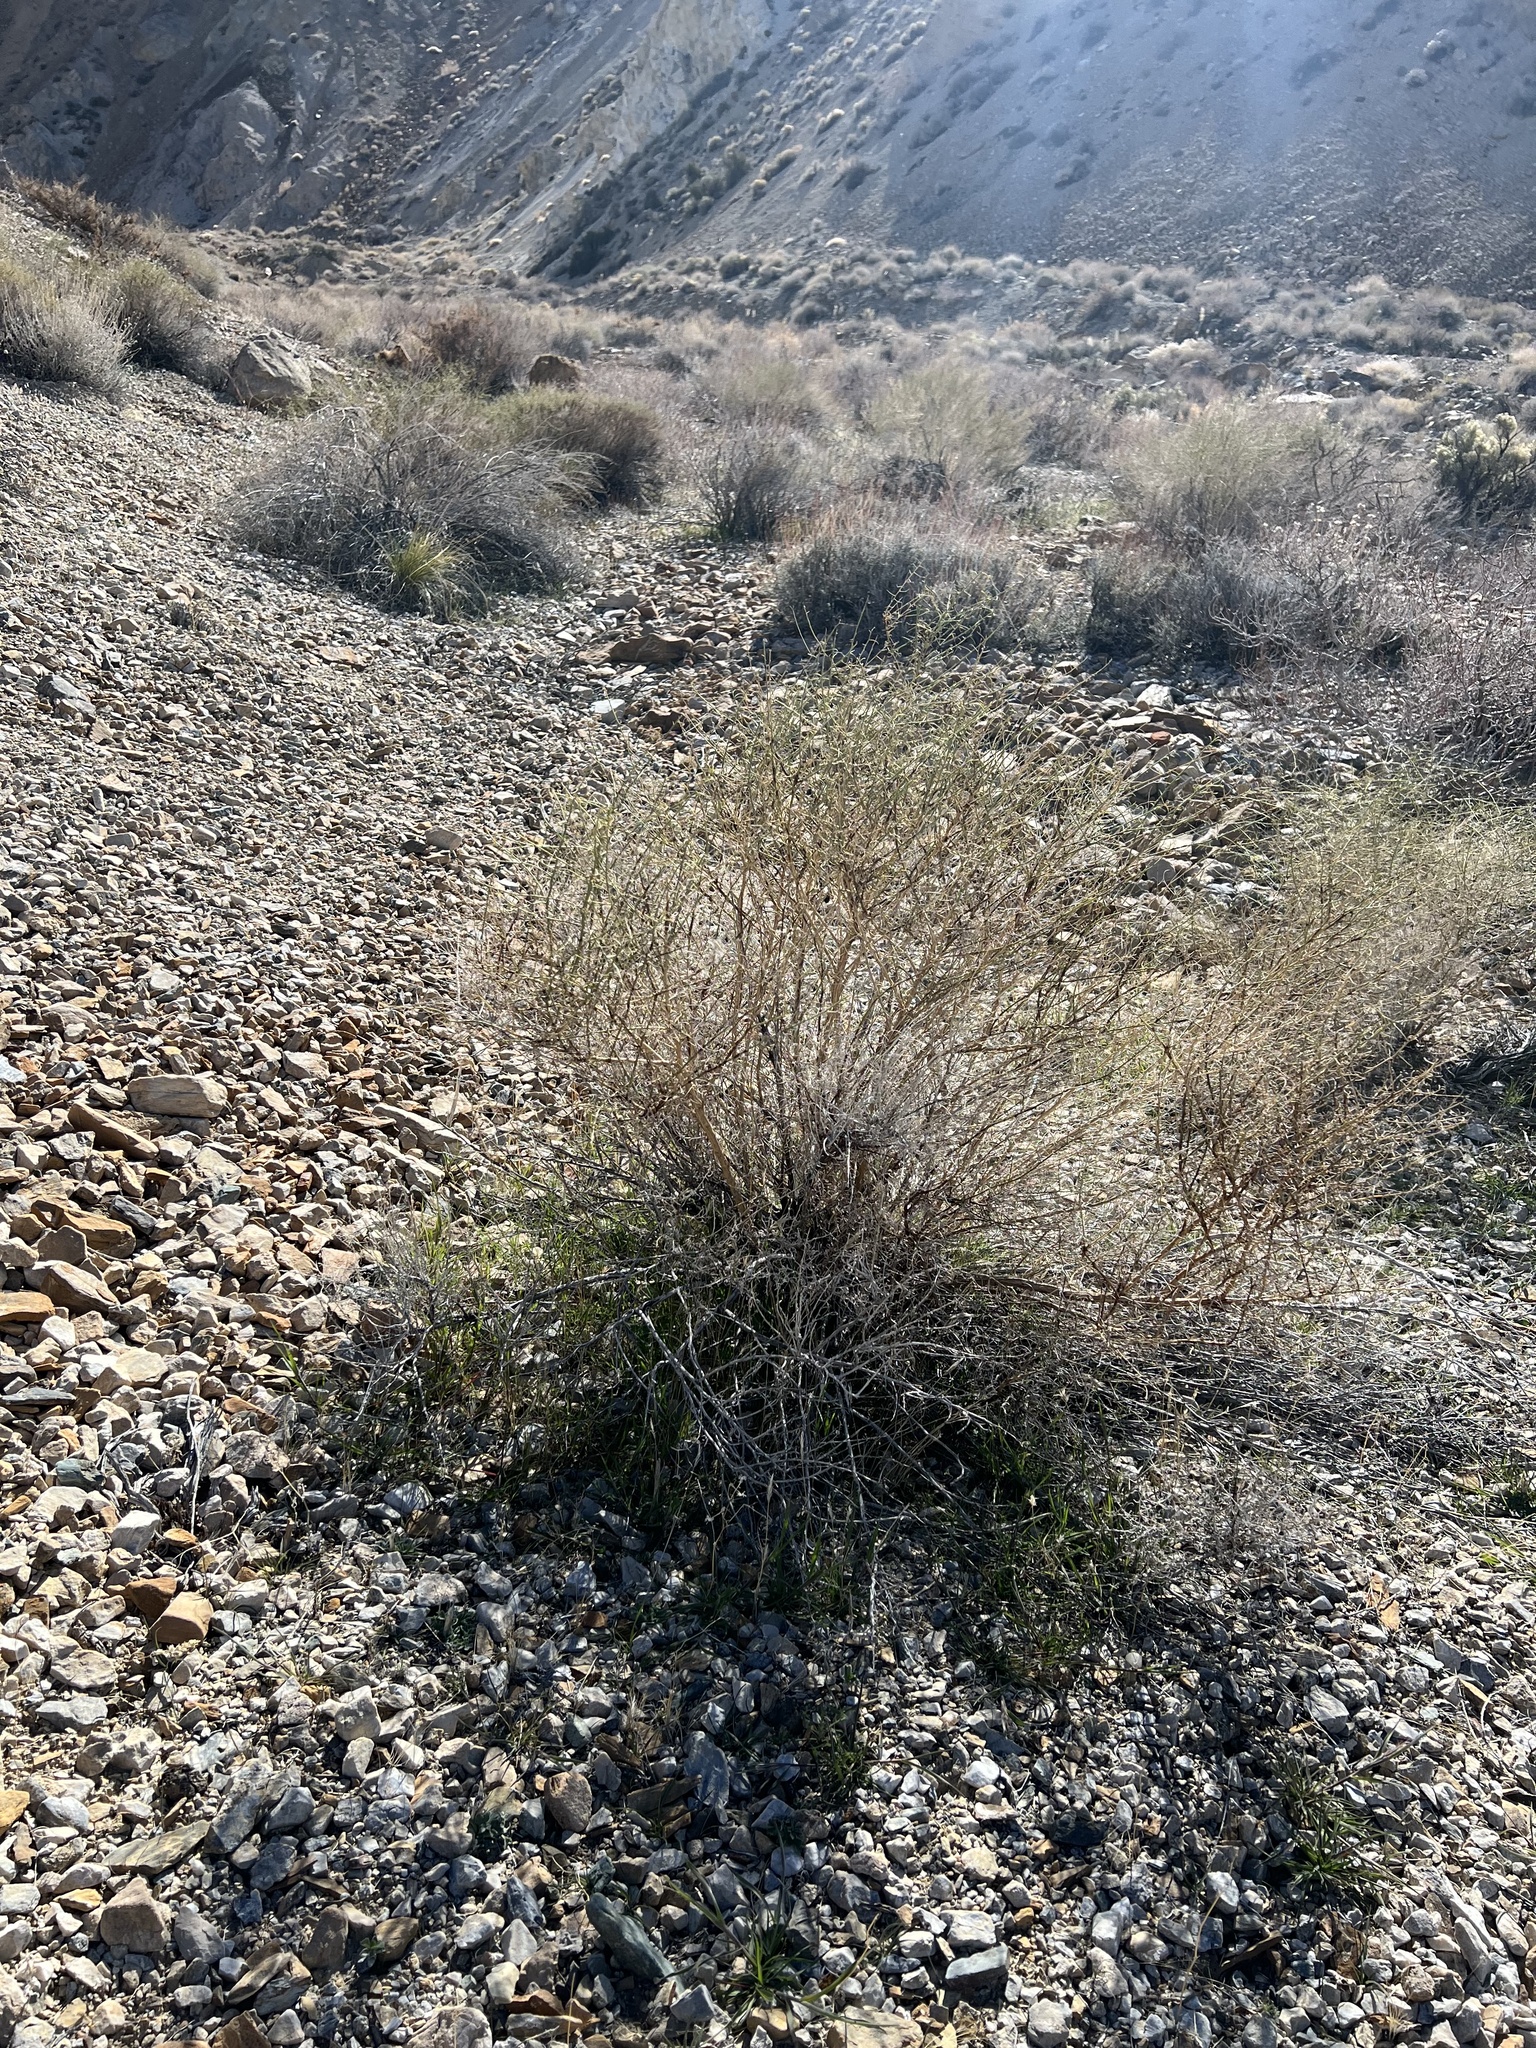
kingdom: Plantae
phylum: Tracheophyta
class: Magnoliopsida
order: Asterales
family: Asteraceae
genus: Ambrosia
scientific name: Ambrosia salsola
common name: Burrobrush
